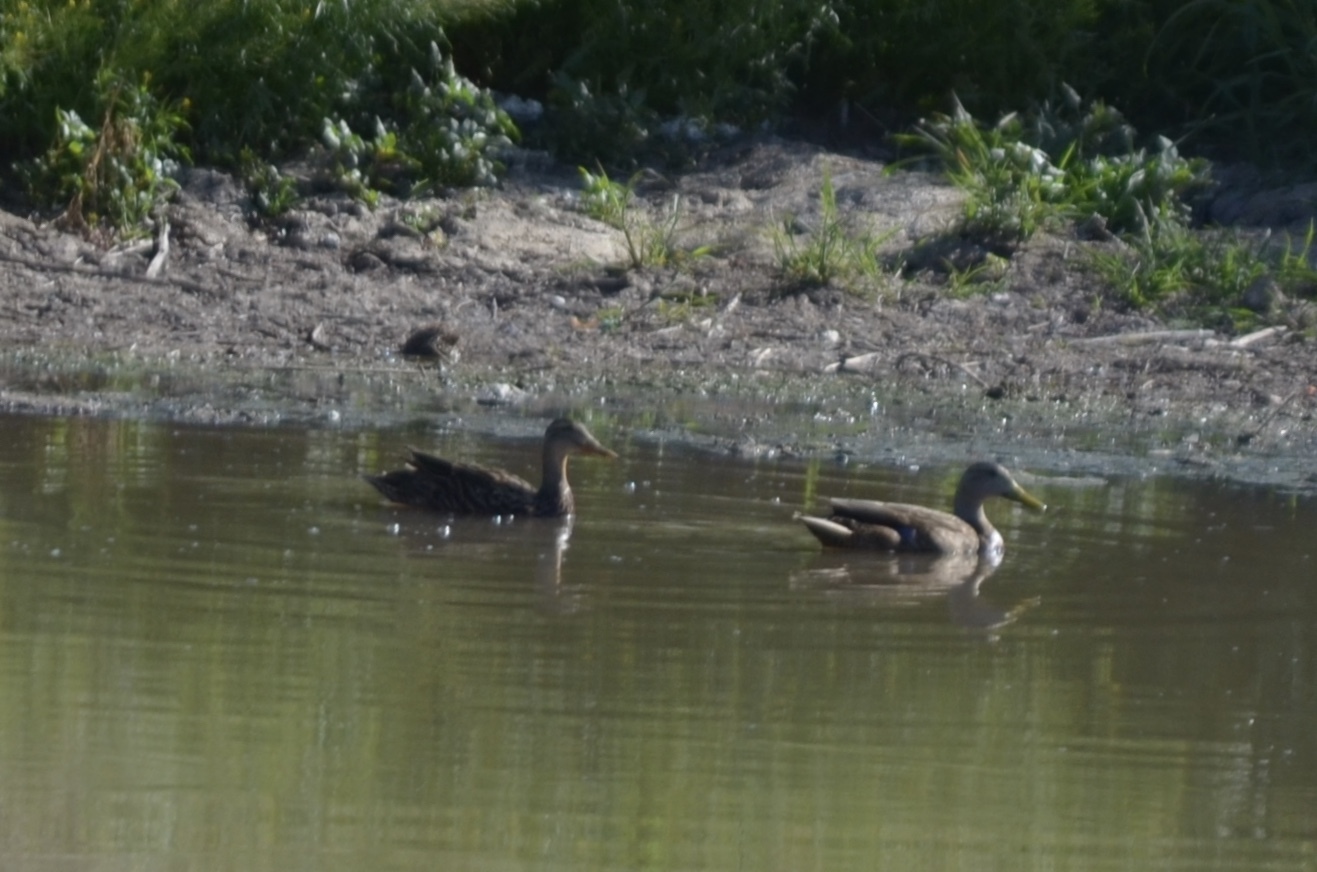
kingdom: Animalia
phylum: Chordata
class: Aves
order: Anseriformes
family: Anatidae
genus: Anas
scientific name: Anas diazi
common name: Mexican duck
